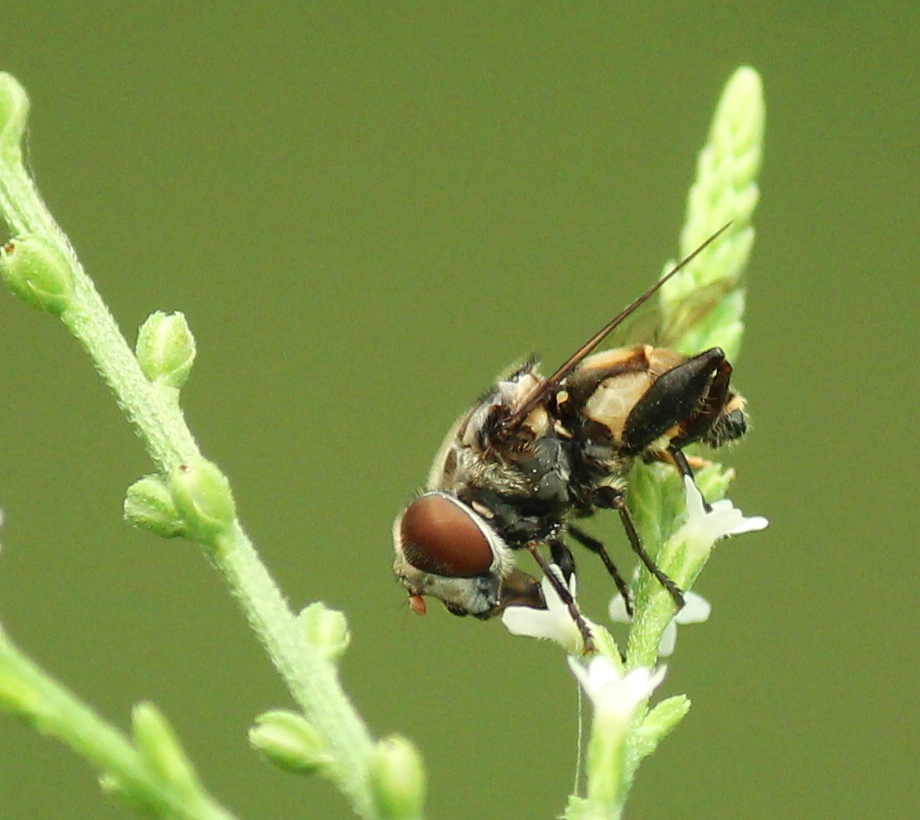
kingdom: Animalia
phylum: Arthropoda
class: Insecta
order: Diptera
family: Syrphidae
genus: Palpada
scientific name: Palpada furcata
